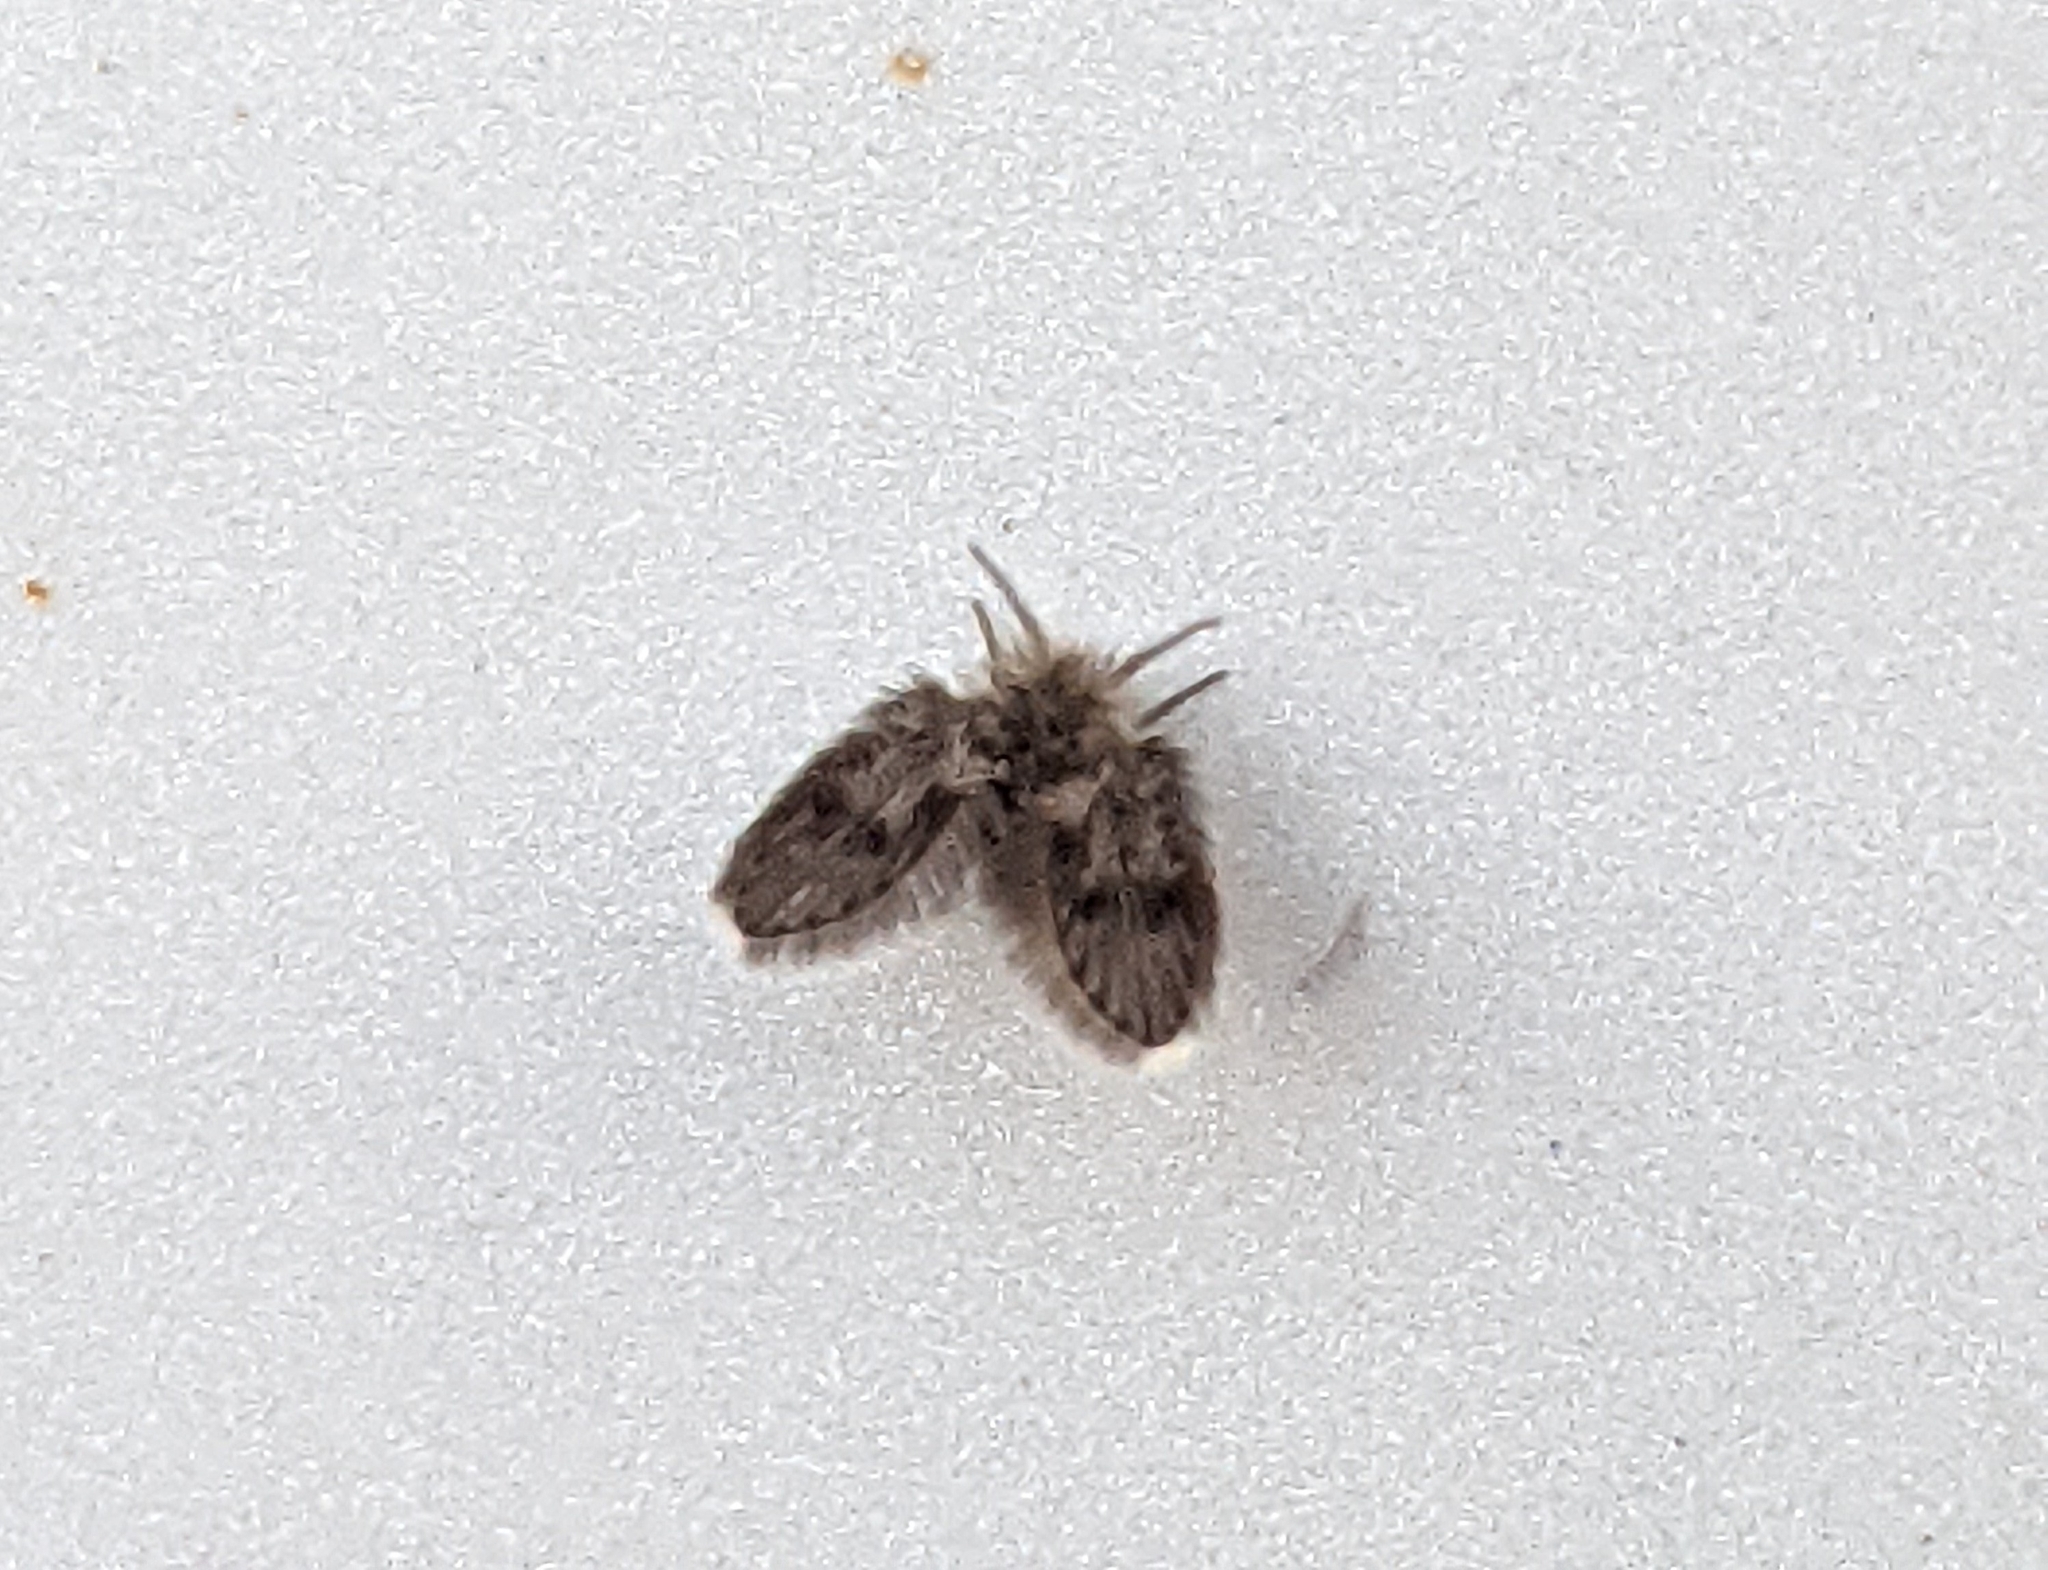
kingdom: Animalia
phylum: Arthropoda
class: Insecta
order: Diptera
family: Psychodidae
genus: Clogmia
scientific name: Clogmia albipunctatus
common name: White-spotted moth fly
